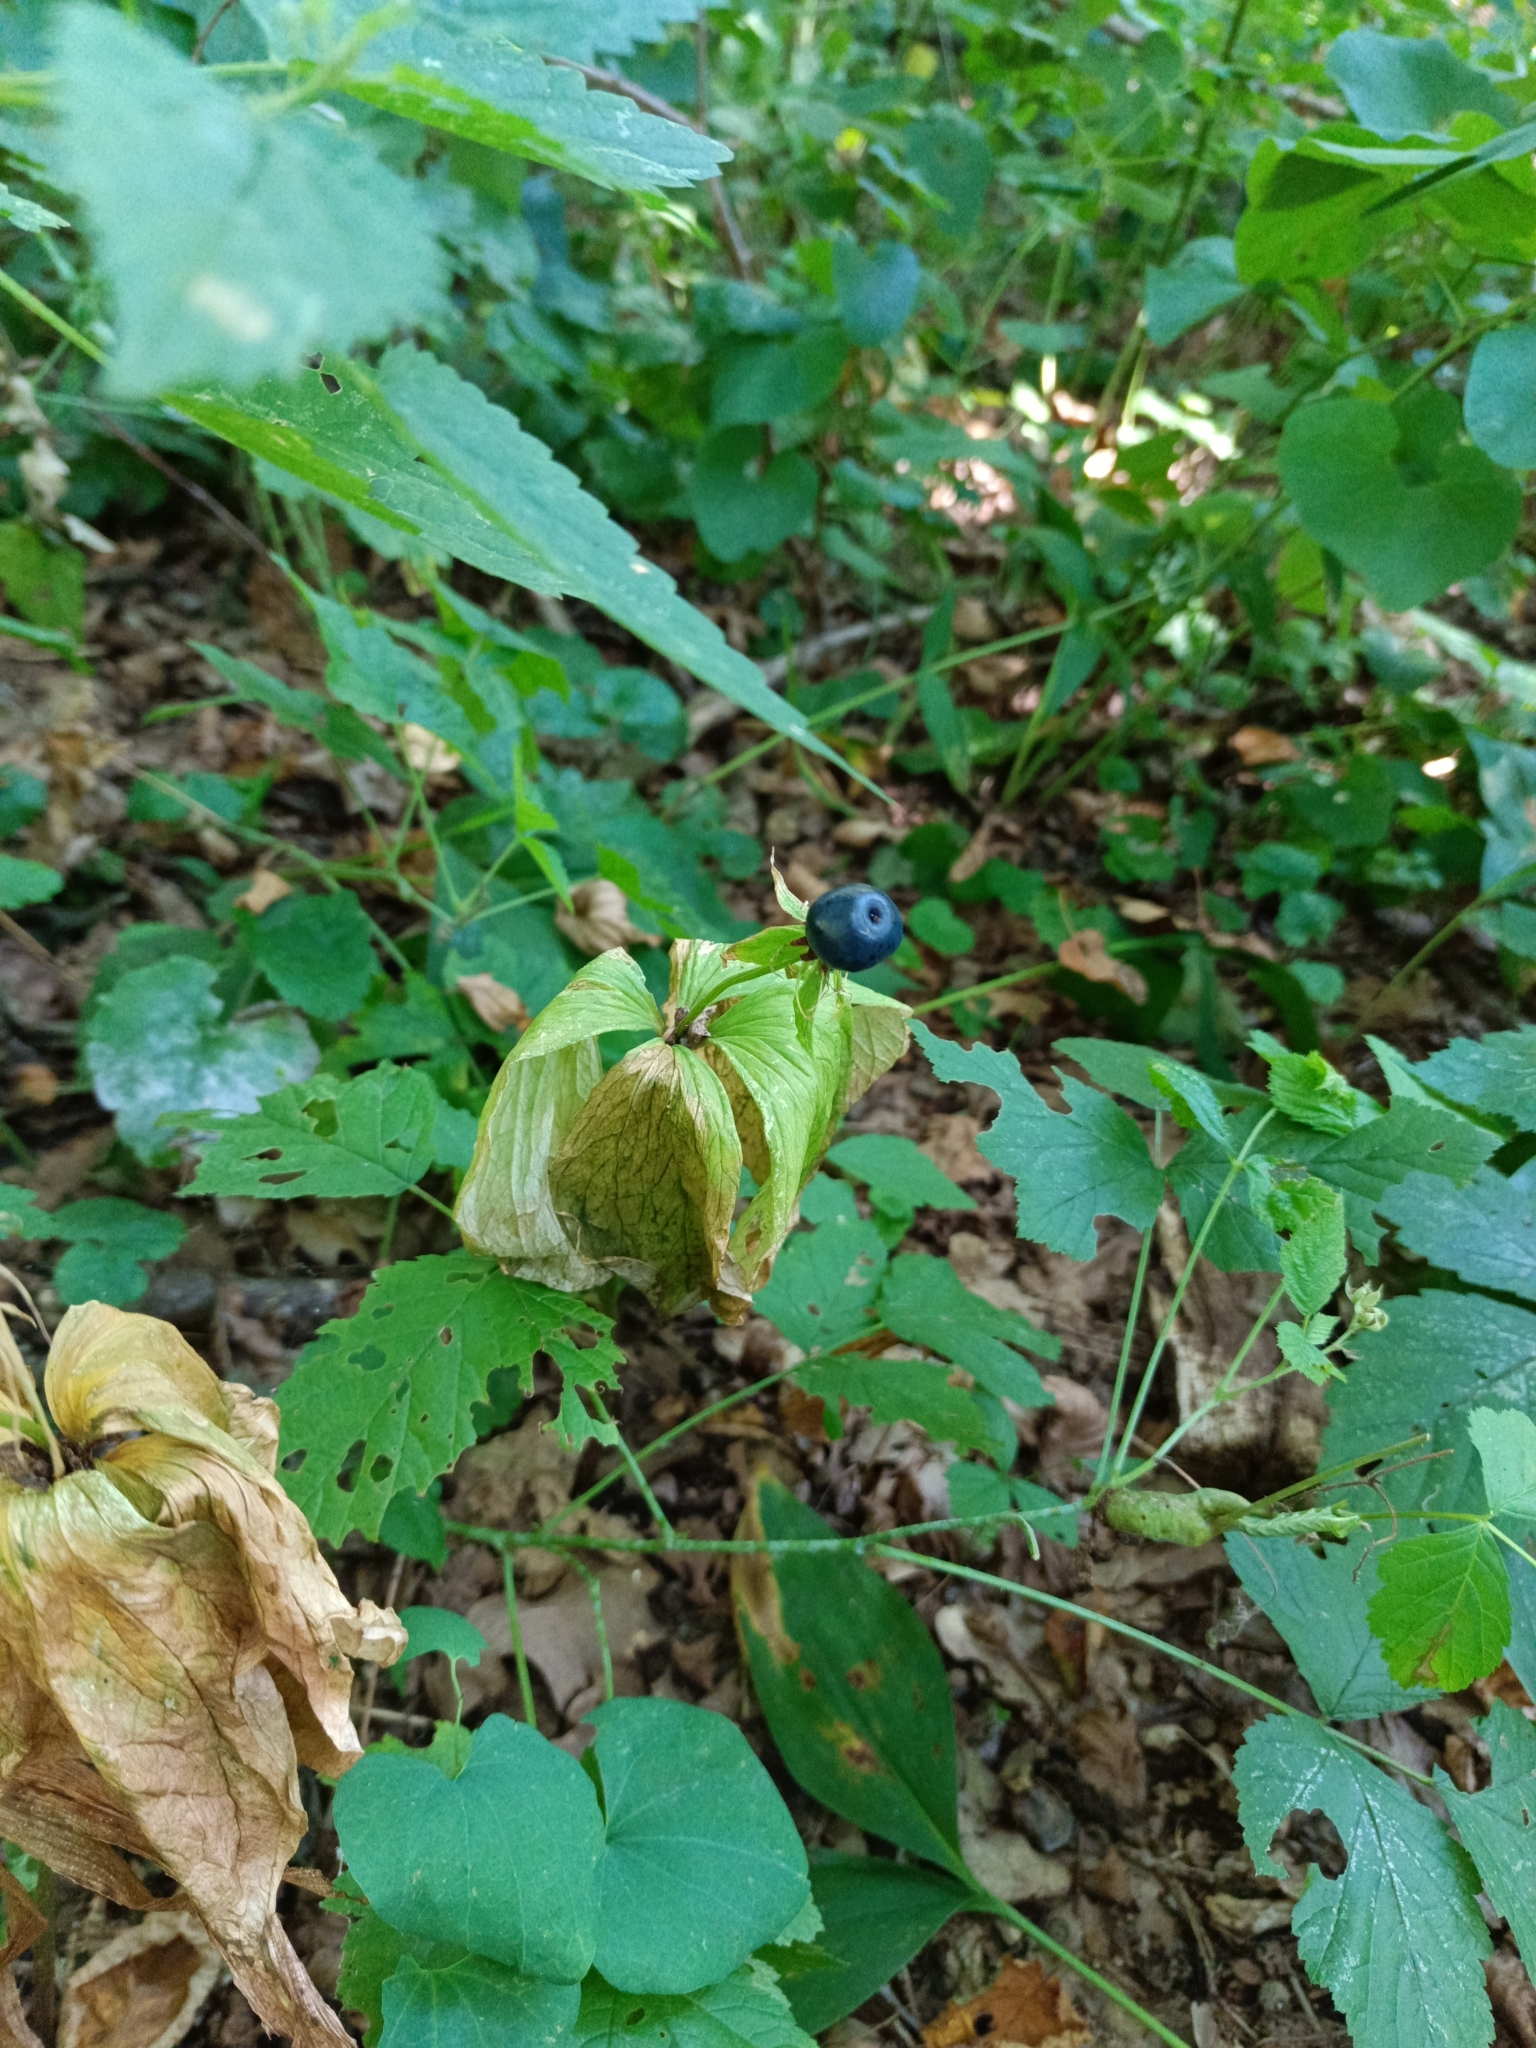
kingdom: Plantae
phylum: Tracheophyta
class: Liliopsida
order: Liliales
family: Melanthiaceae
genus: Paris
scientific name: Paris quadrifolia
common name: Herb-paris
